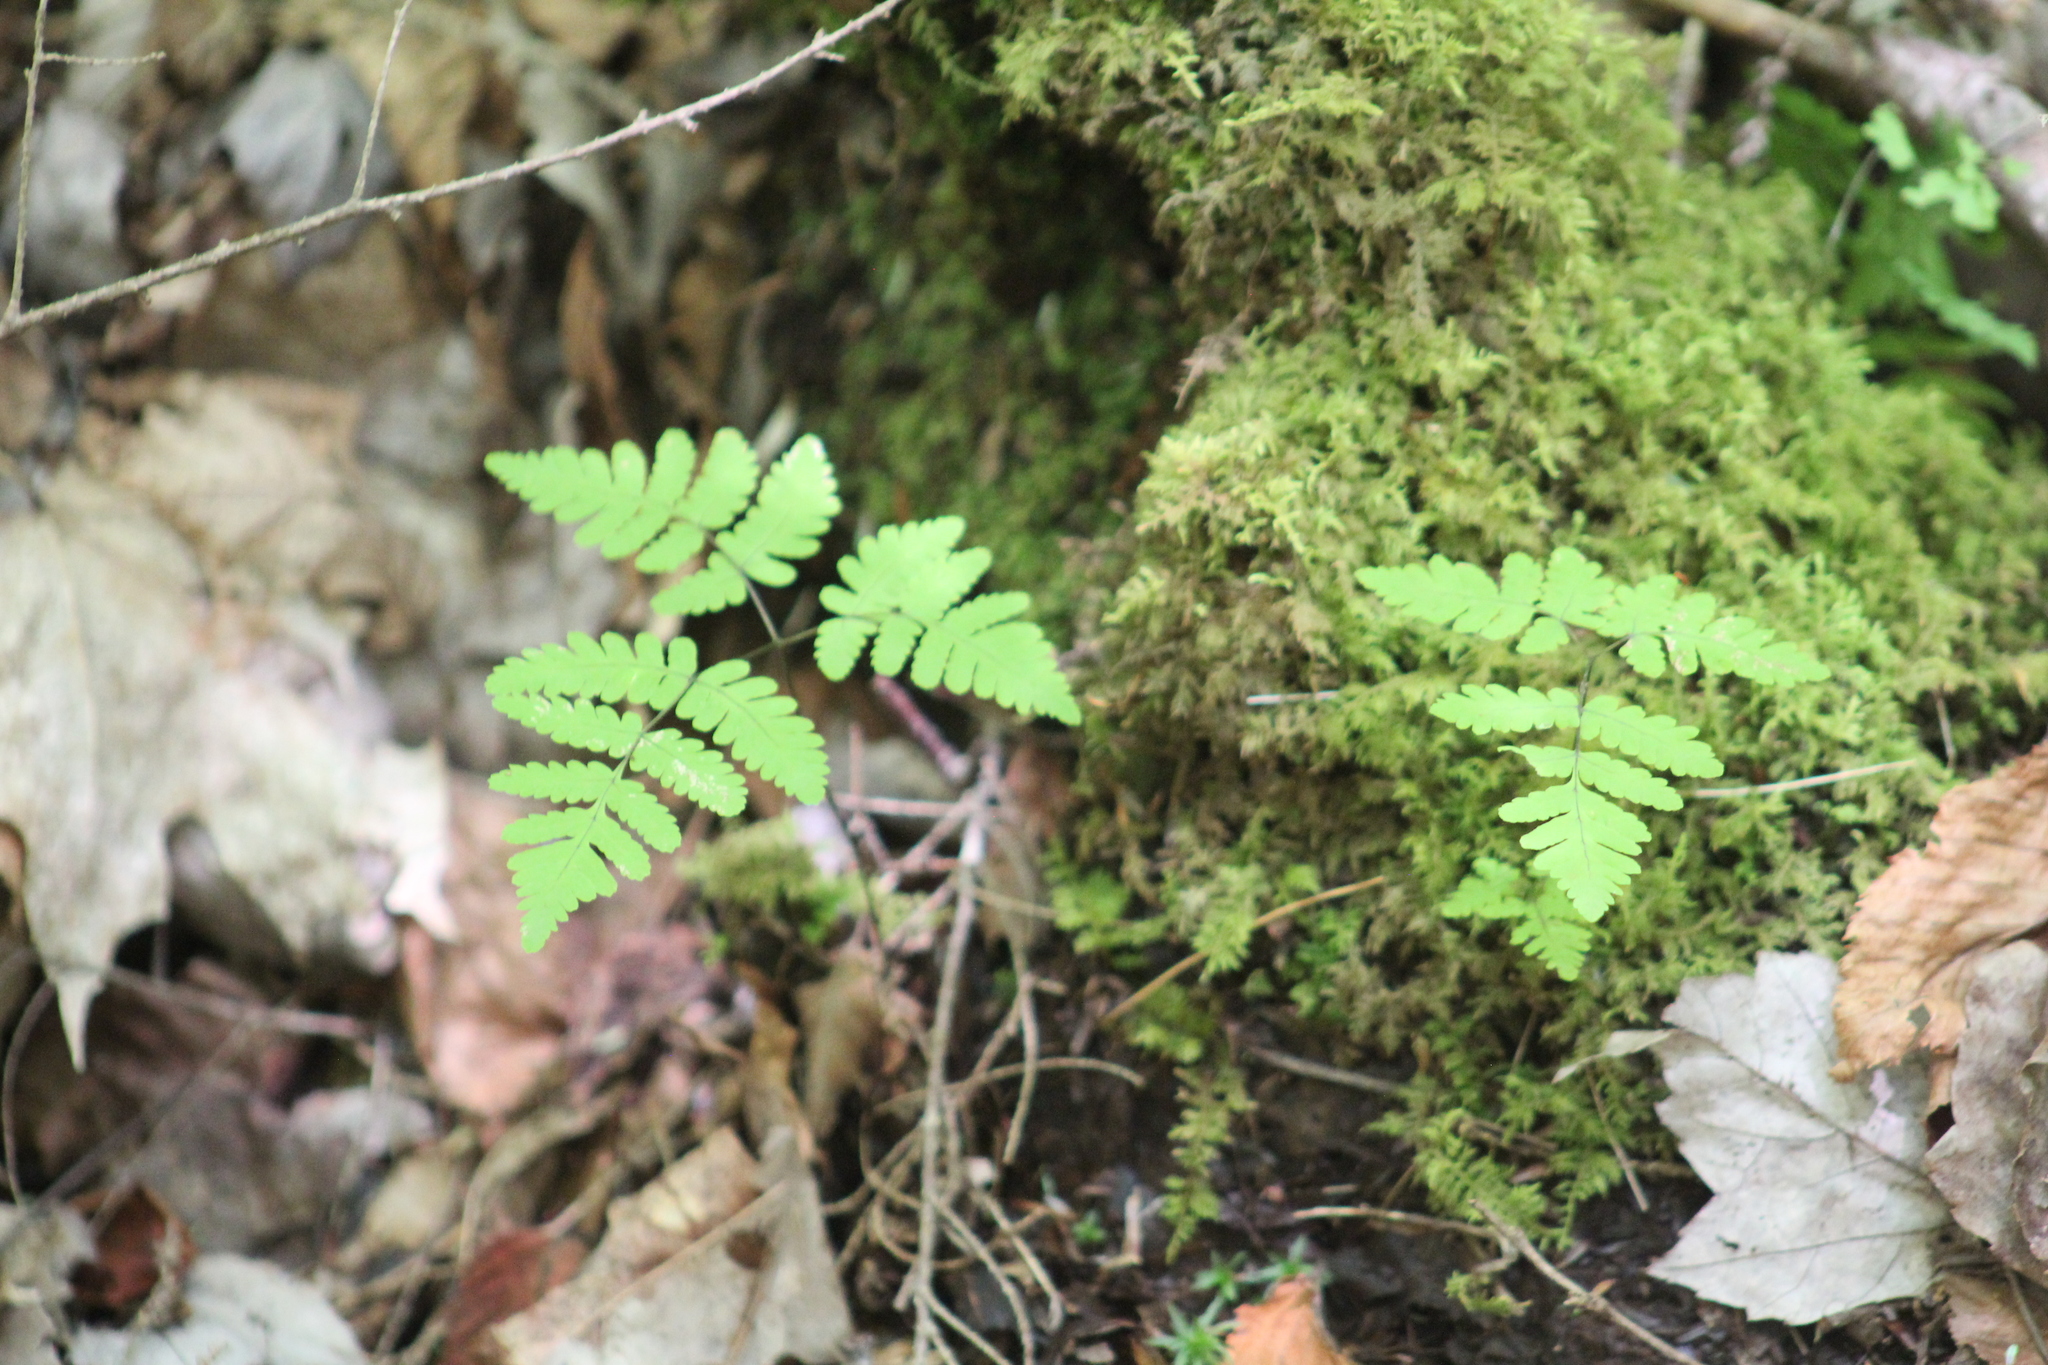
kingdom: Plantae
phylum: Tracheophyta
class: Polypodiopsida
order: Polypodiales
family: Cystopteridaceae
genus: Gymnocarpium
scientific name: Gymnocarpium dryopteris
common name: Oak fern
